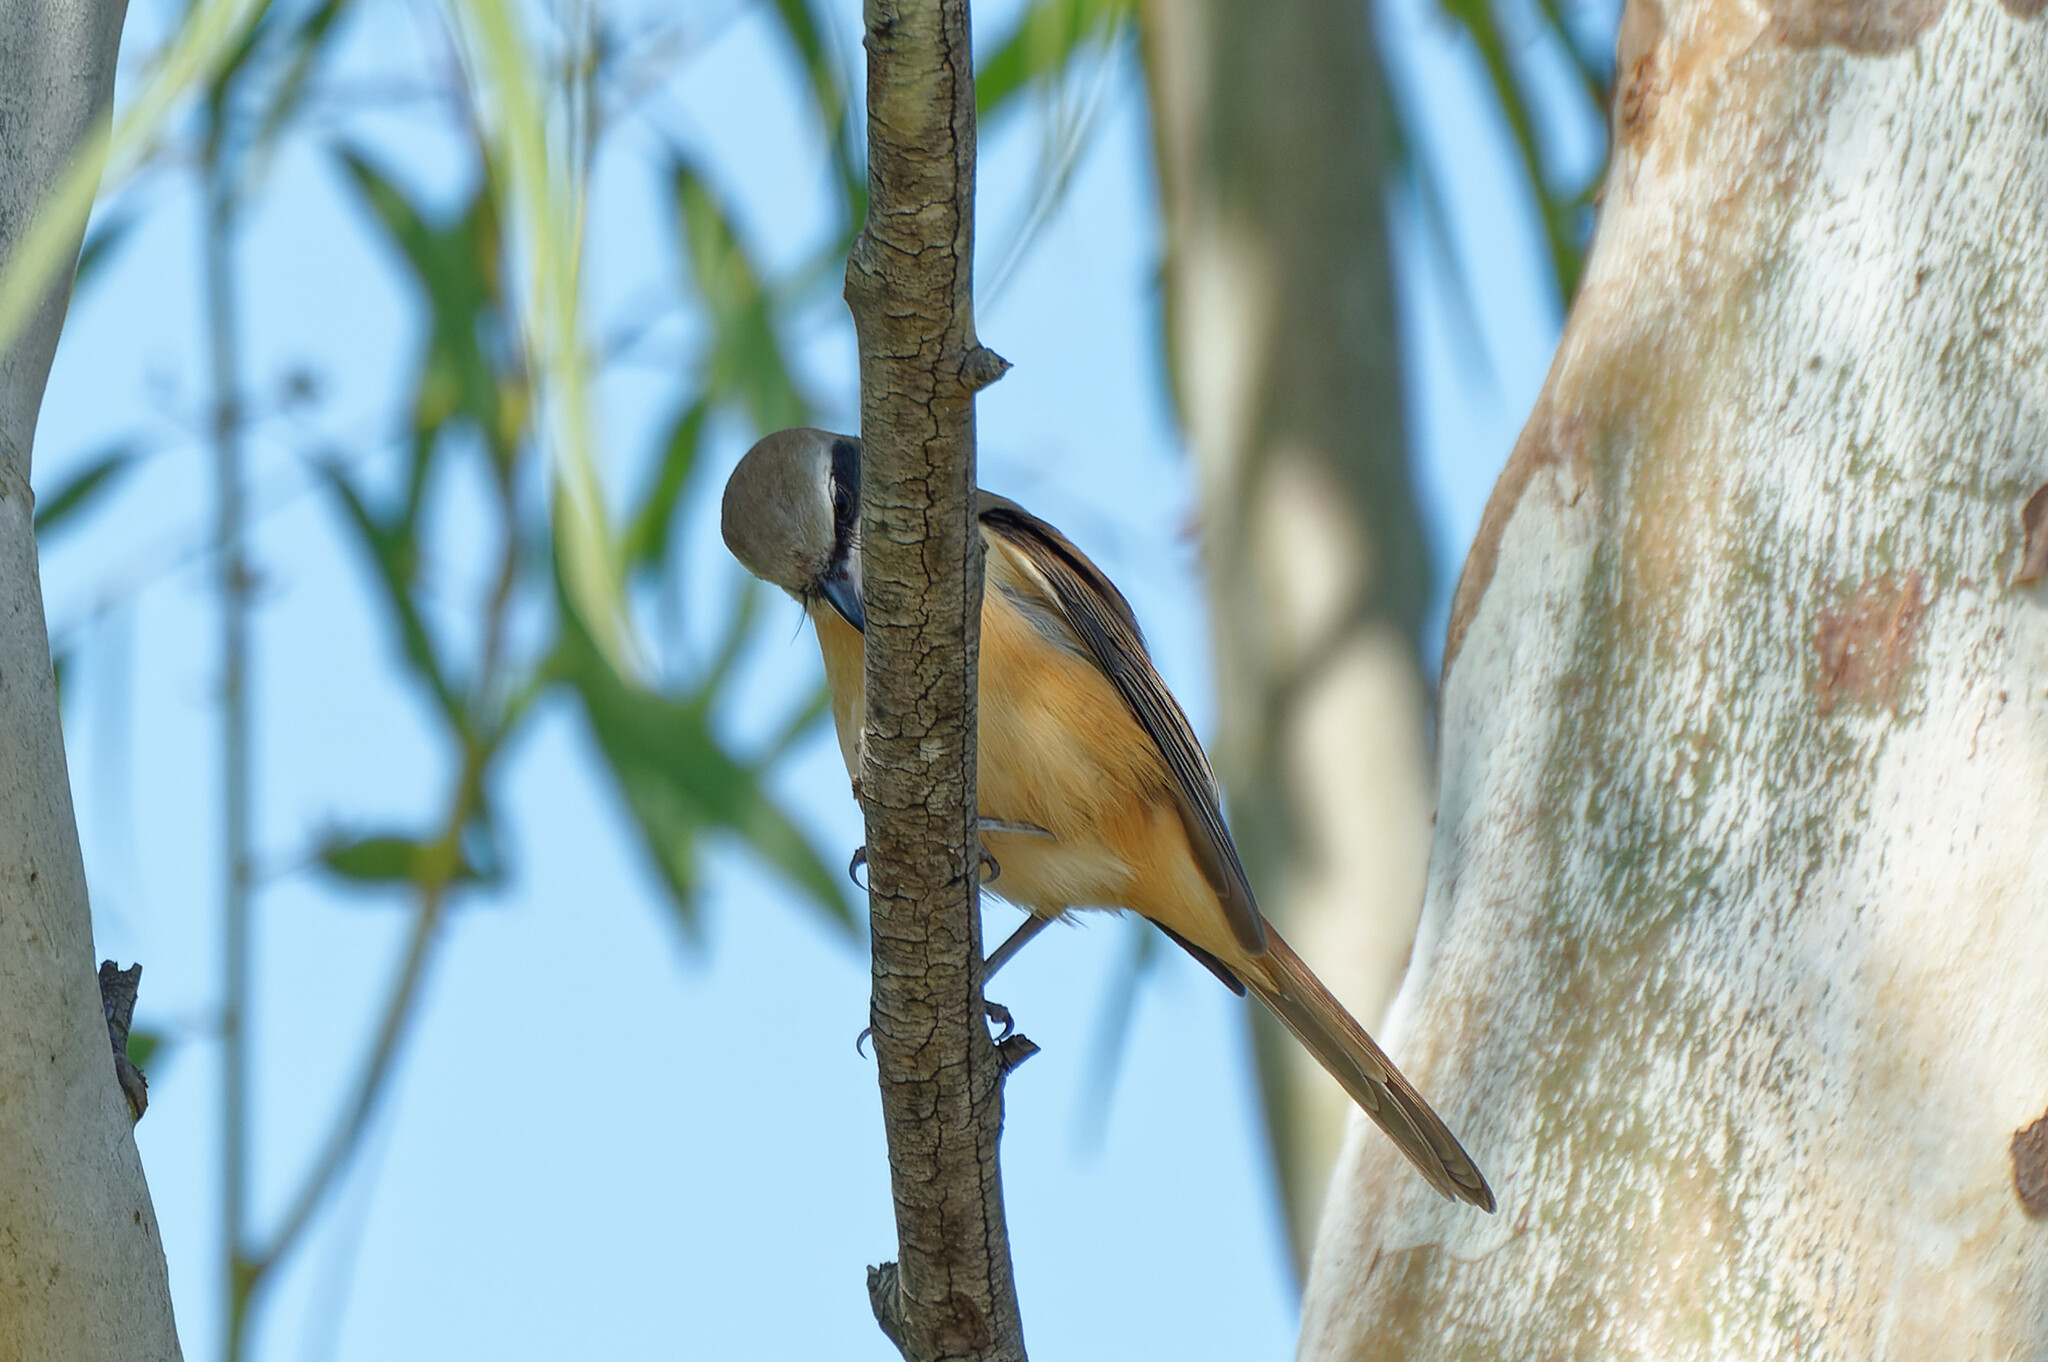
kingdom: Animalia
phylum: Chordata
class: Aves
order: Passeriformes
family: Laniidae
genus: Lanius
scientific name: Lanius cristatus
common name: Brown shrike
